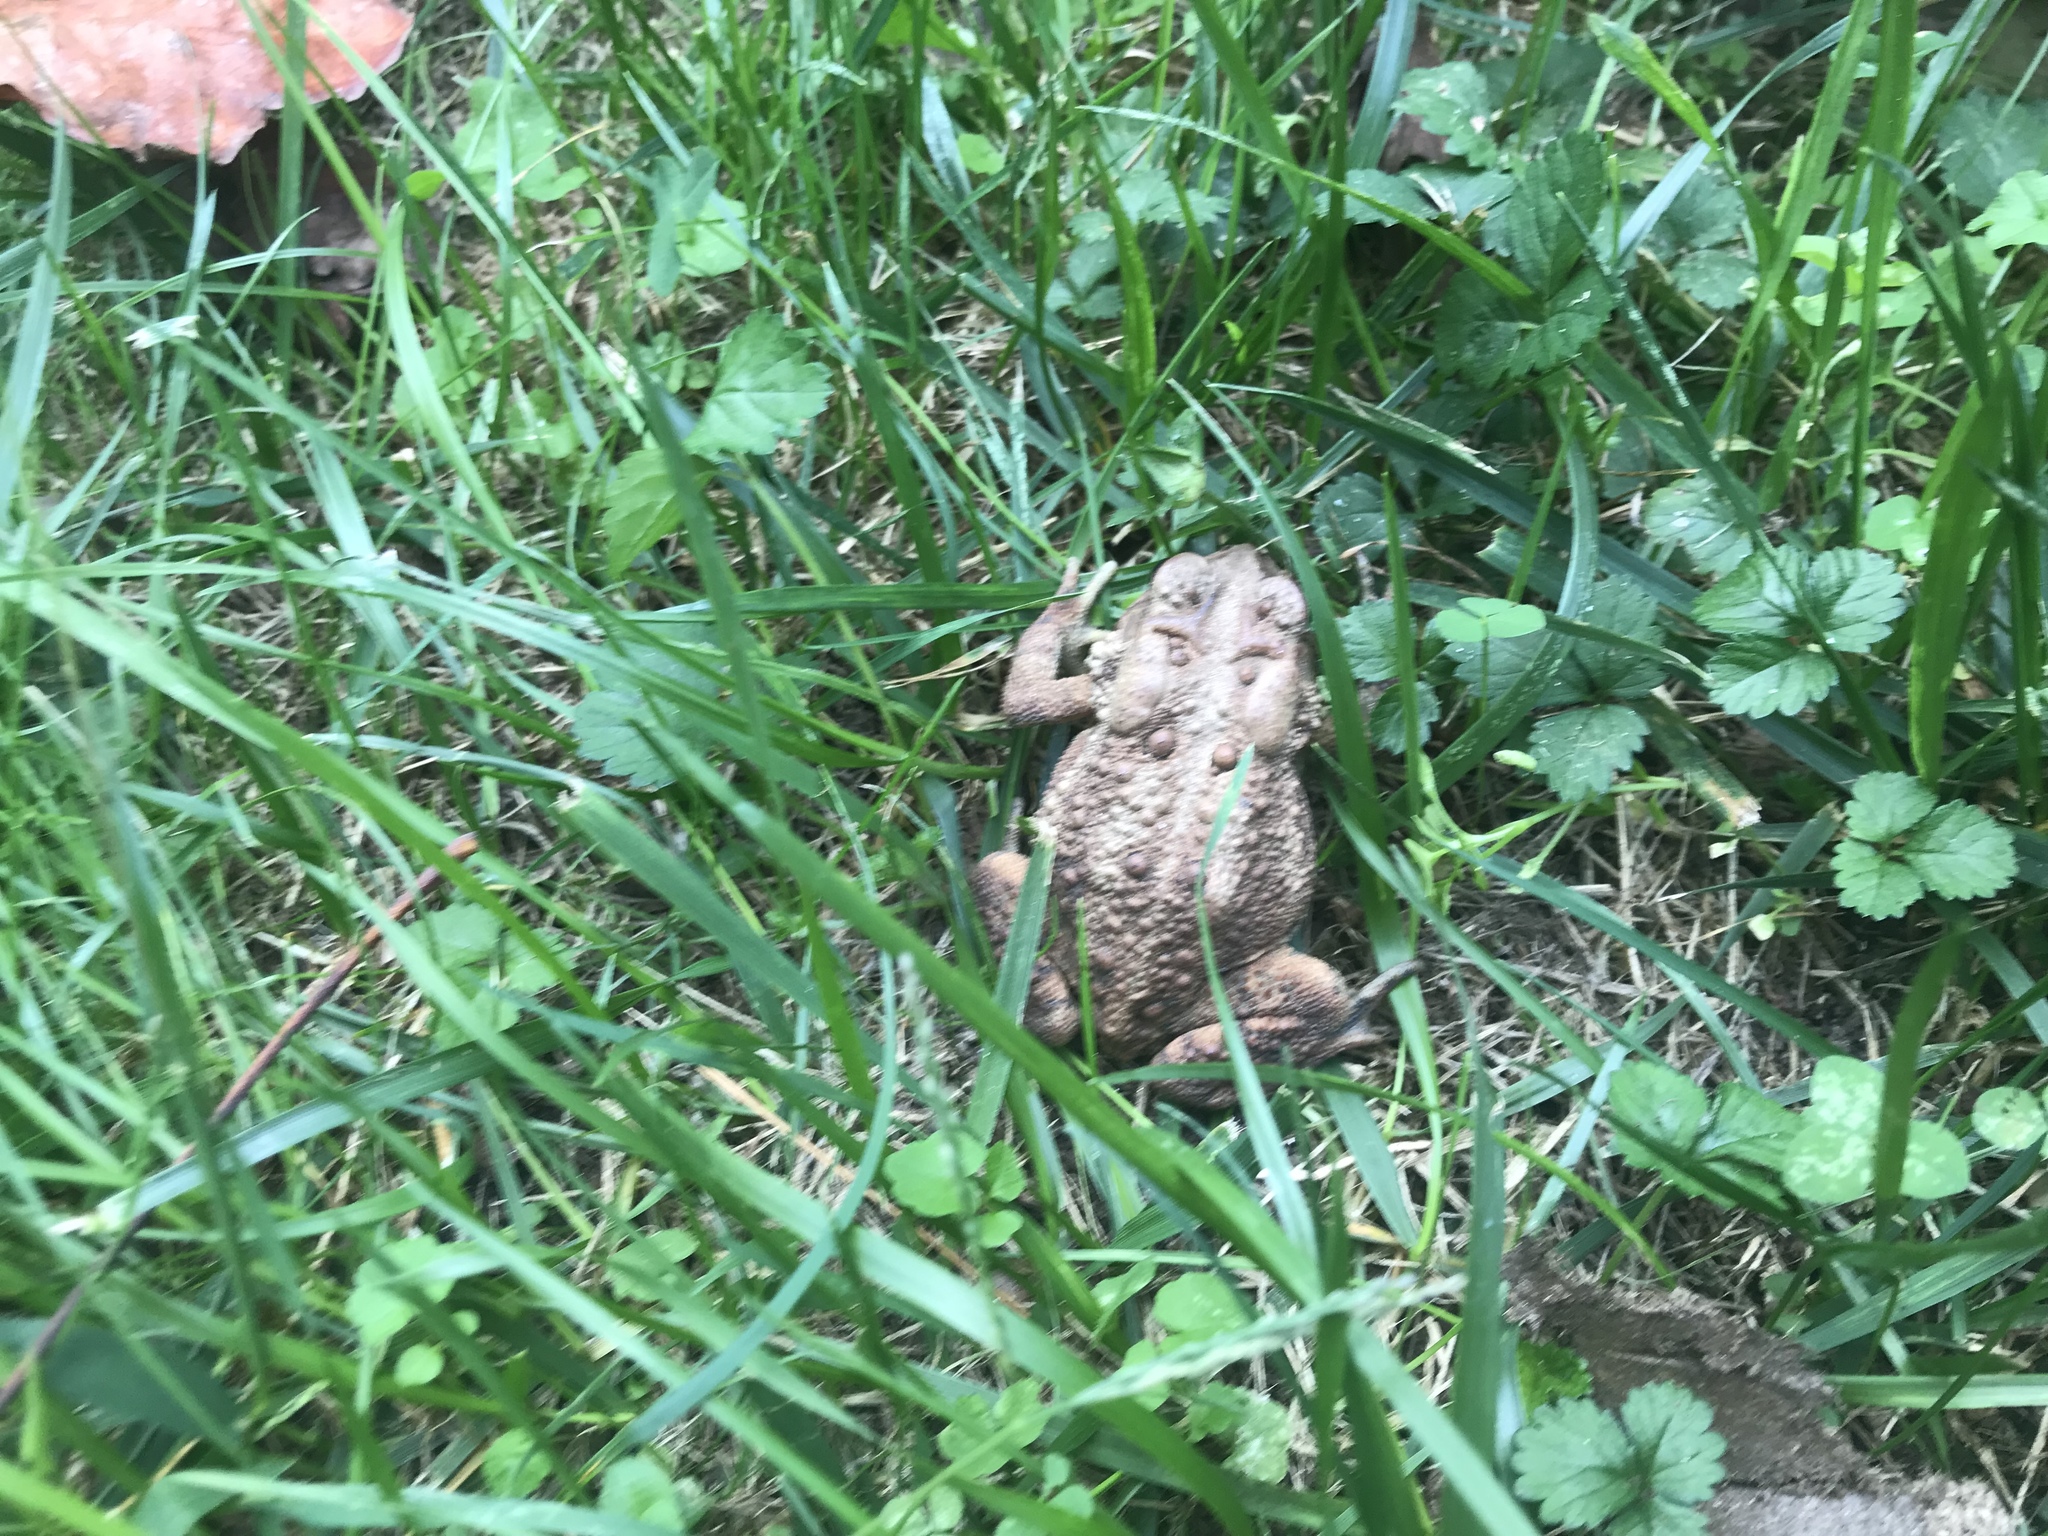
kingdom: Animalia
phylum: Chordata
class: Amphibia
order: Anura
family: Bufonidae
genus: Anaxyrus
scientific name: Anaxyrus americanus
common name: American toad
